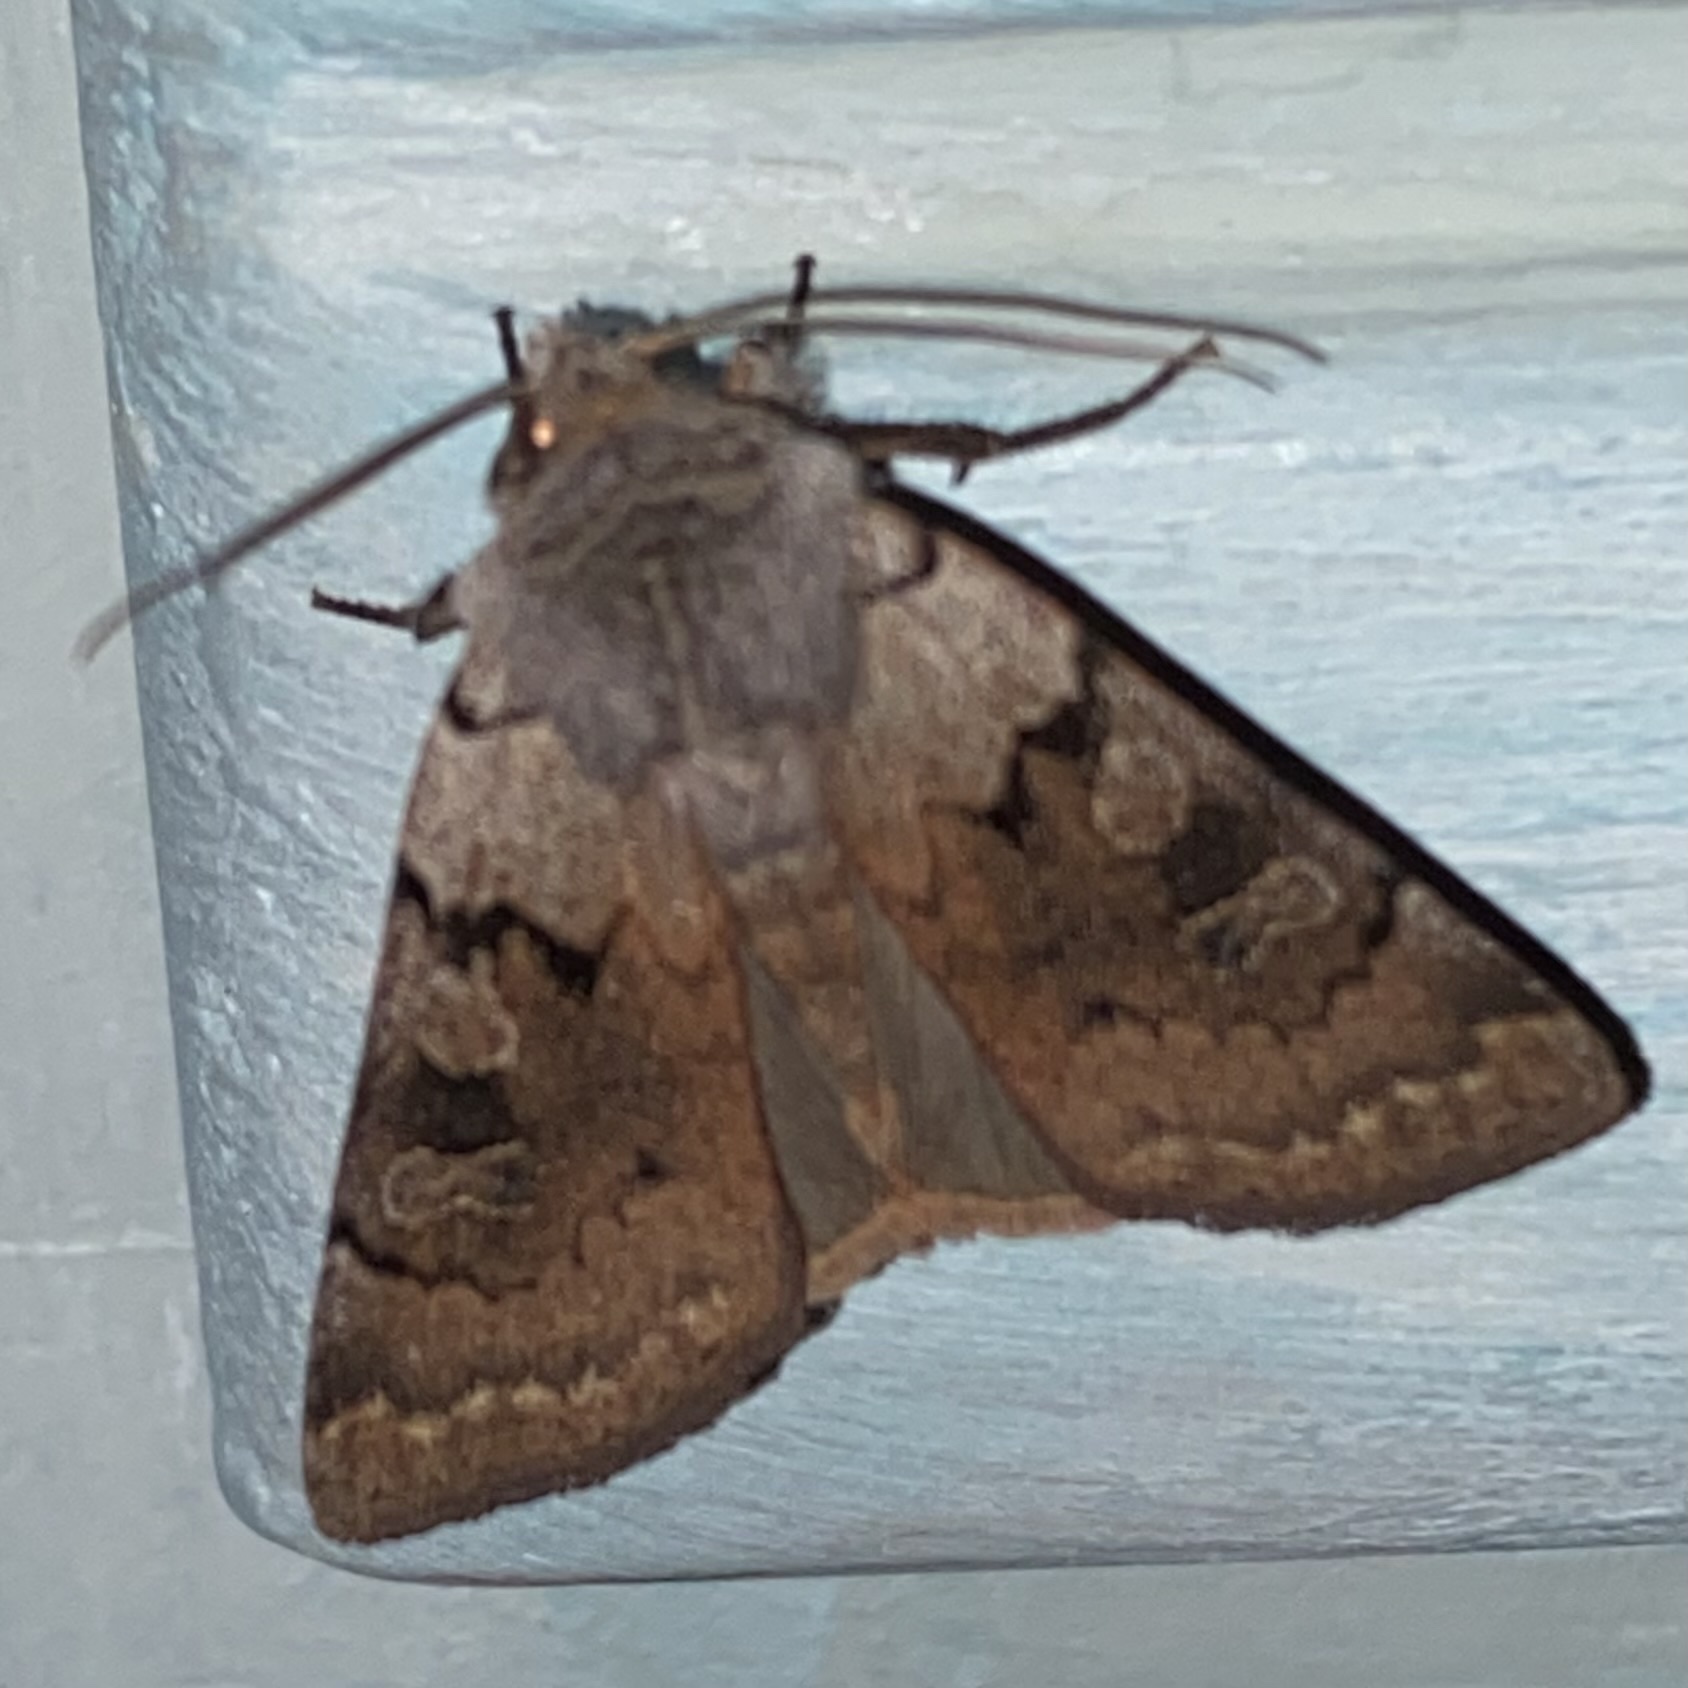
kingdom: Animalia
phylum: Arthropoda
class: Insecta
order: Lepidoptera
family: Noctuidae
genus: Richia
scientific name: Richia parentalis
